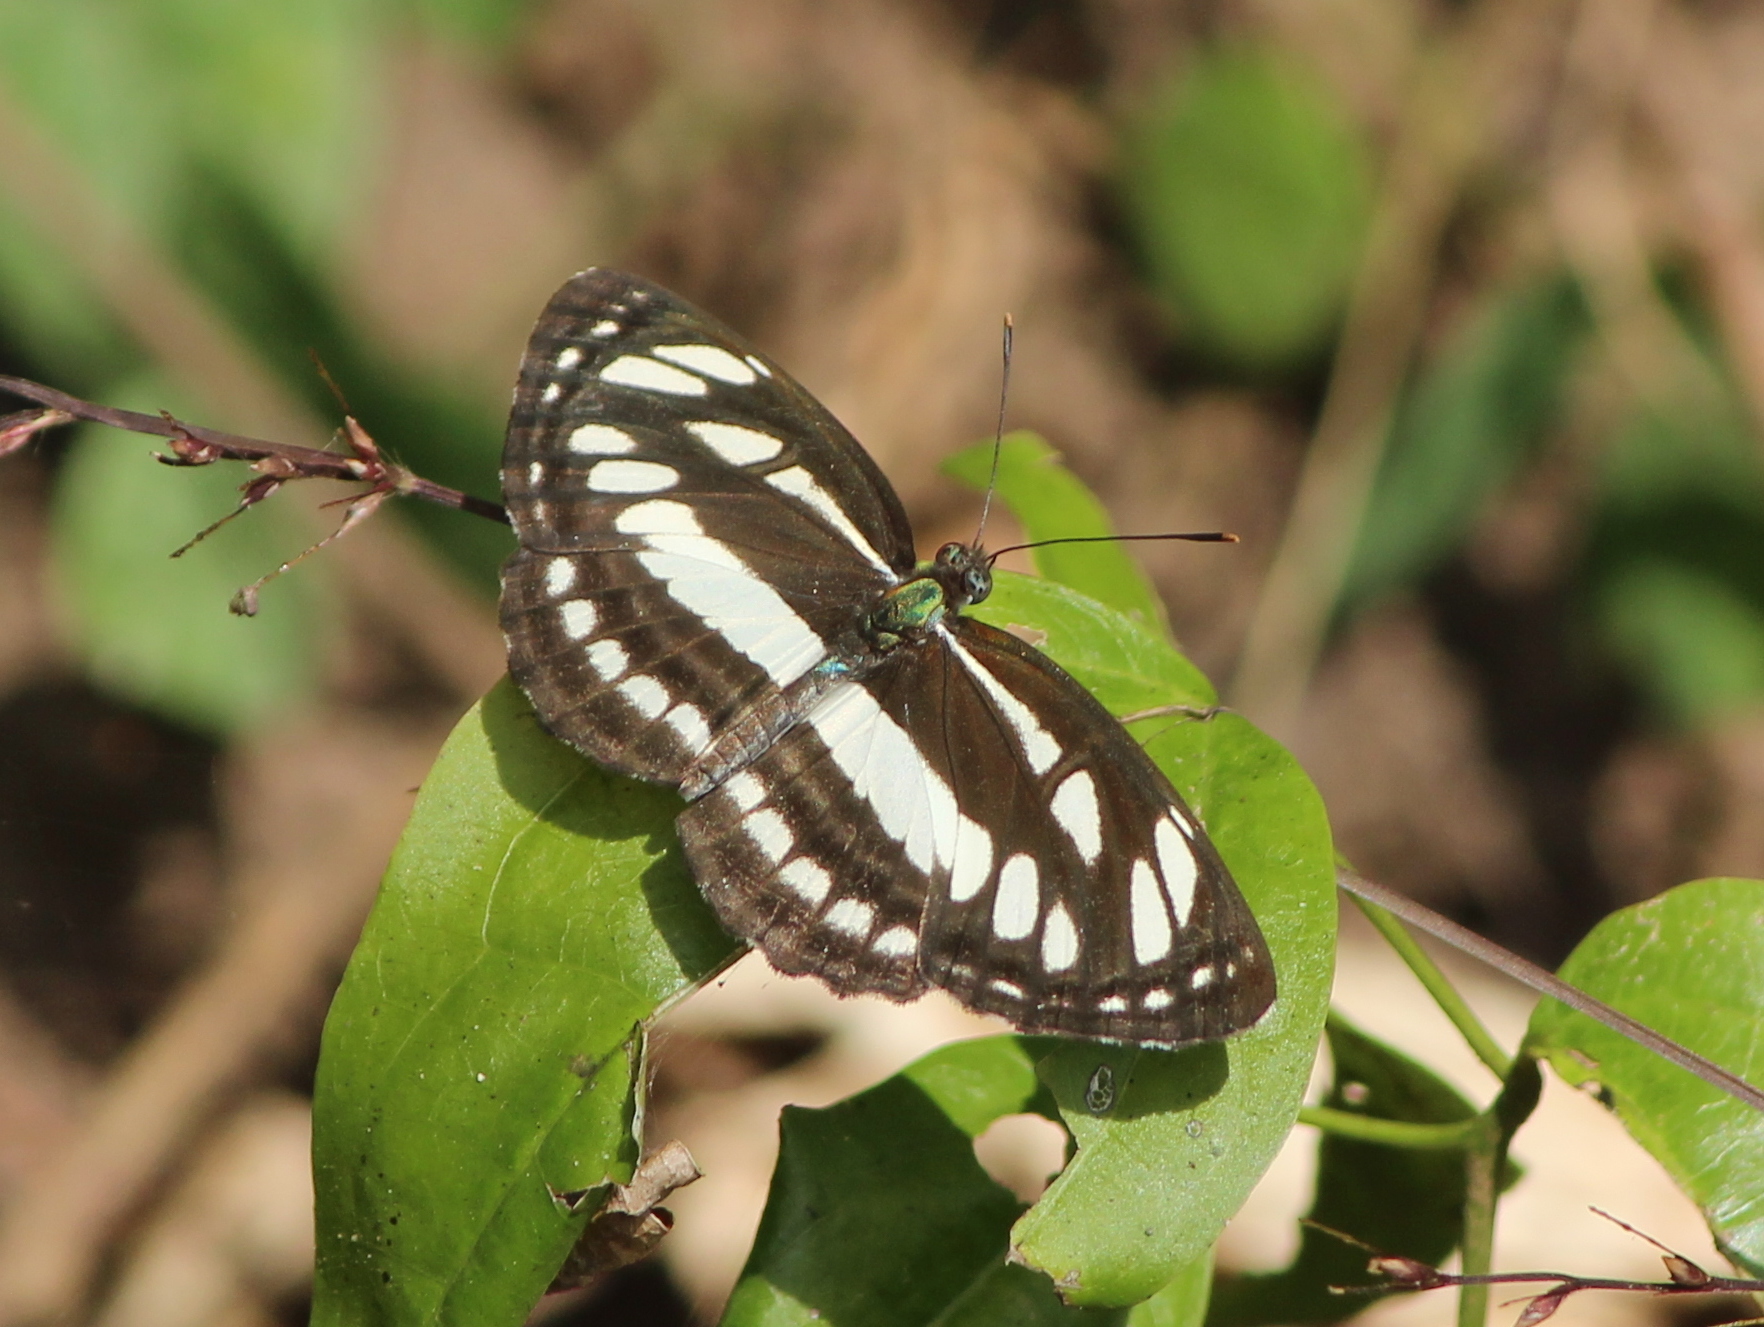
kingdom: Animalia
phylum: Arthropoda
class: Insecta
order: Lepidoptera
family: Nymphalidae
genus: Neptis
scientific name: Neptis hylas
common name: Common sailer
